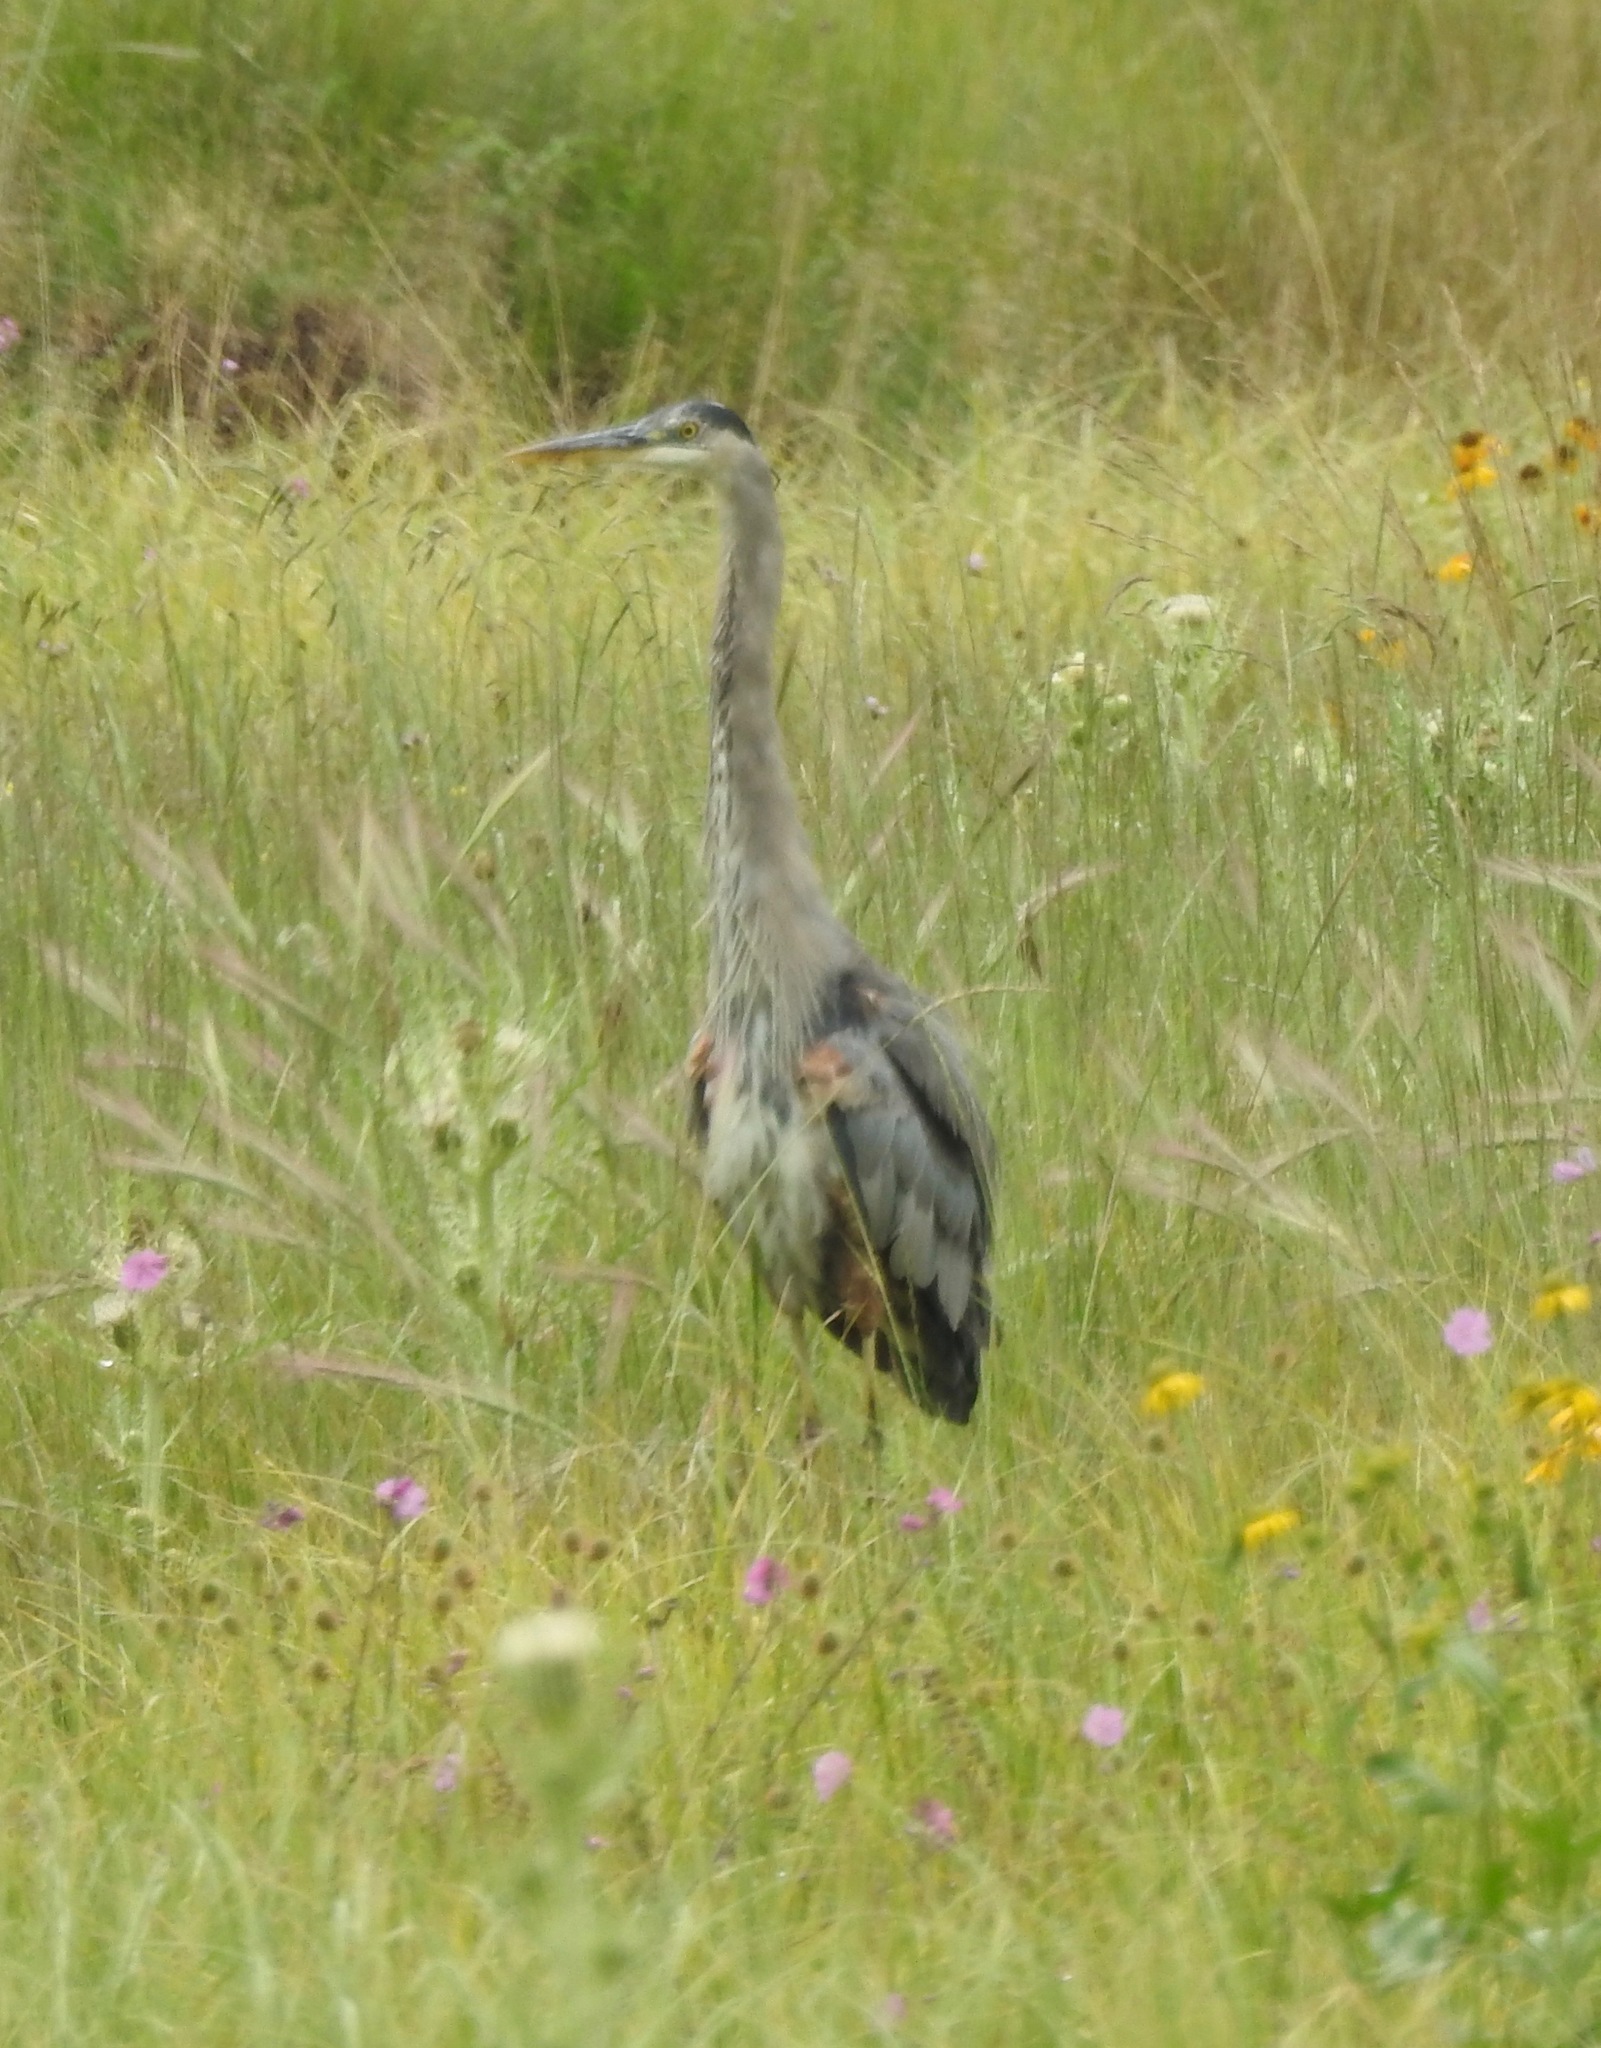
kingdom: Animalia
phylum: Chordata
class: Aves
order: Pelecaniformes
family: Ardeidae
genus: Ardea
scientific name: Ardea herodias
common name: Great blue heron
